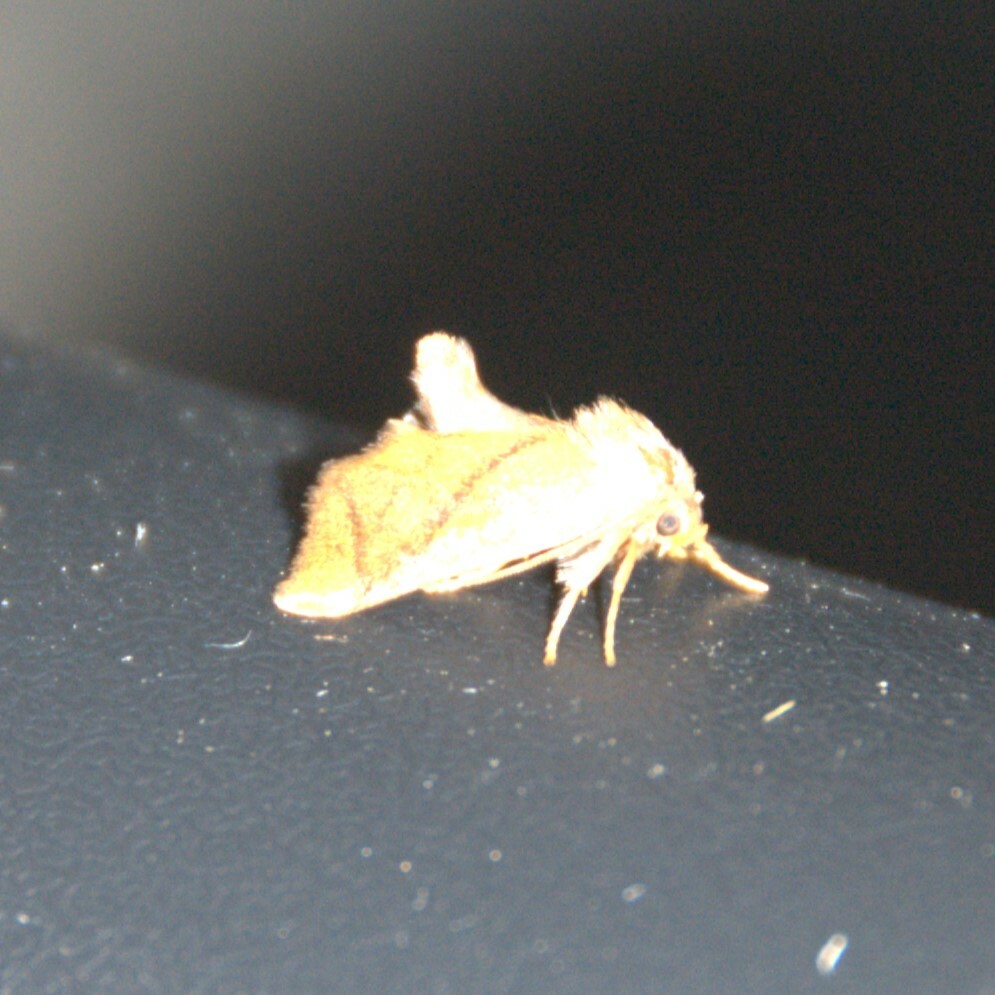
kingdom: Animalia
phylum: Arthropoda
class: Insecta
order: Lepidoptera
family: Limacodidae
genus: Apoda
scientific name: Apoda limacodes
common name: Festoon
